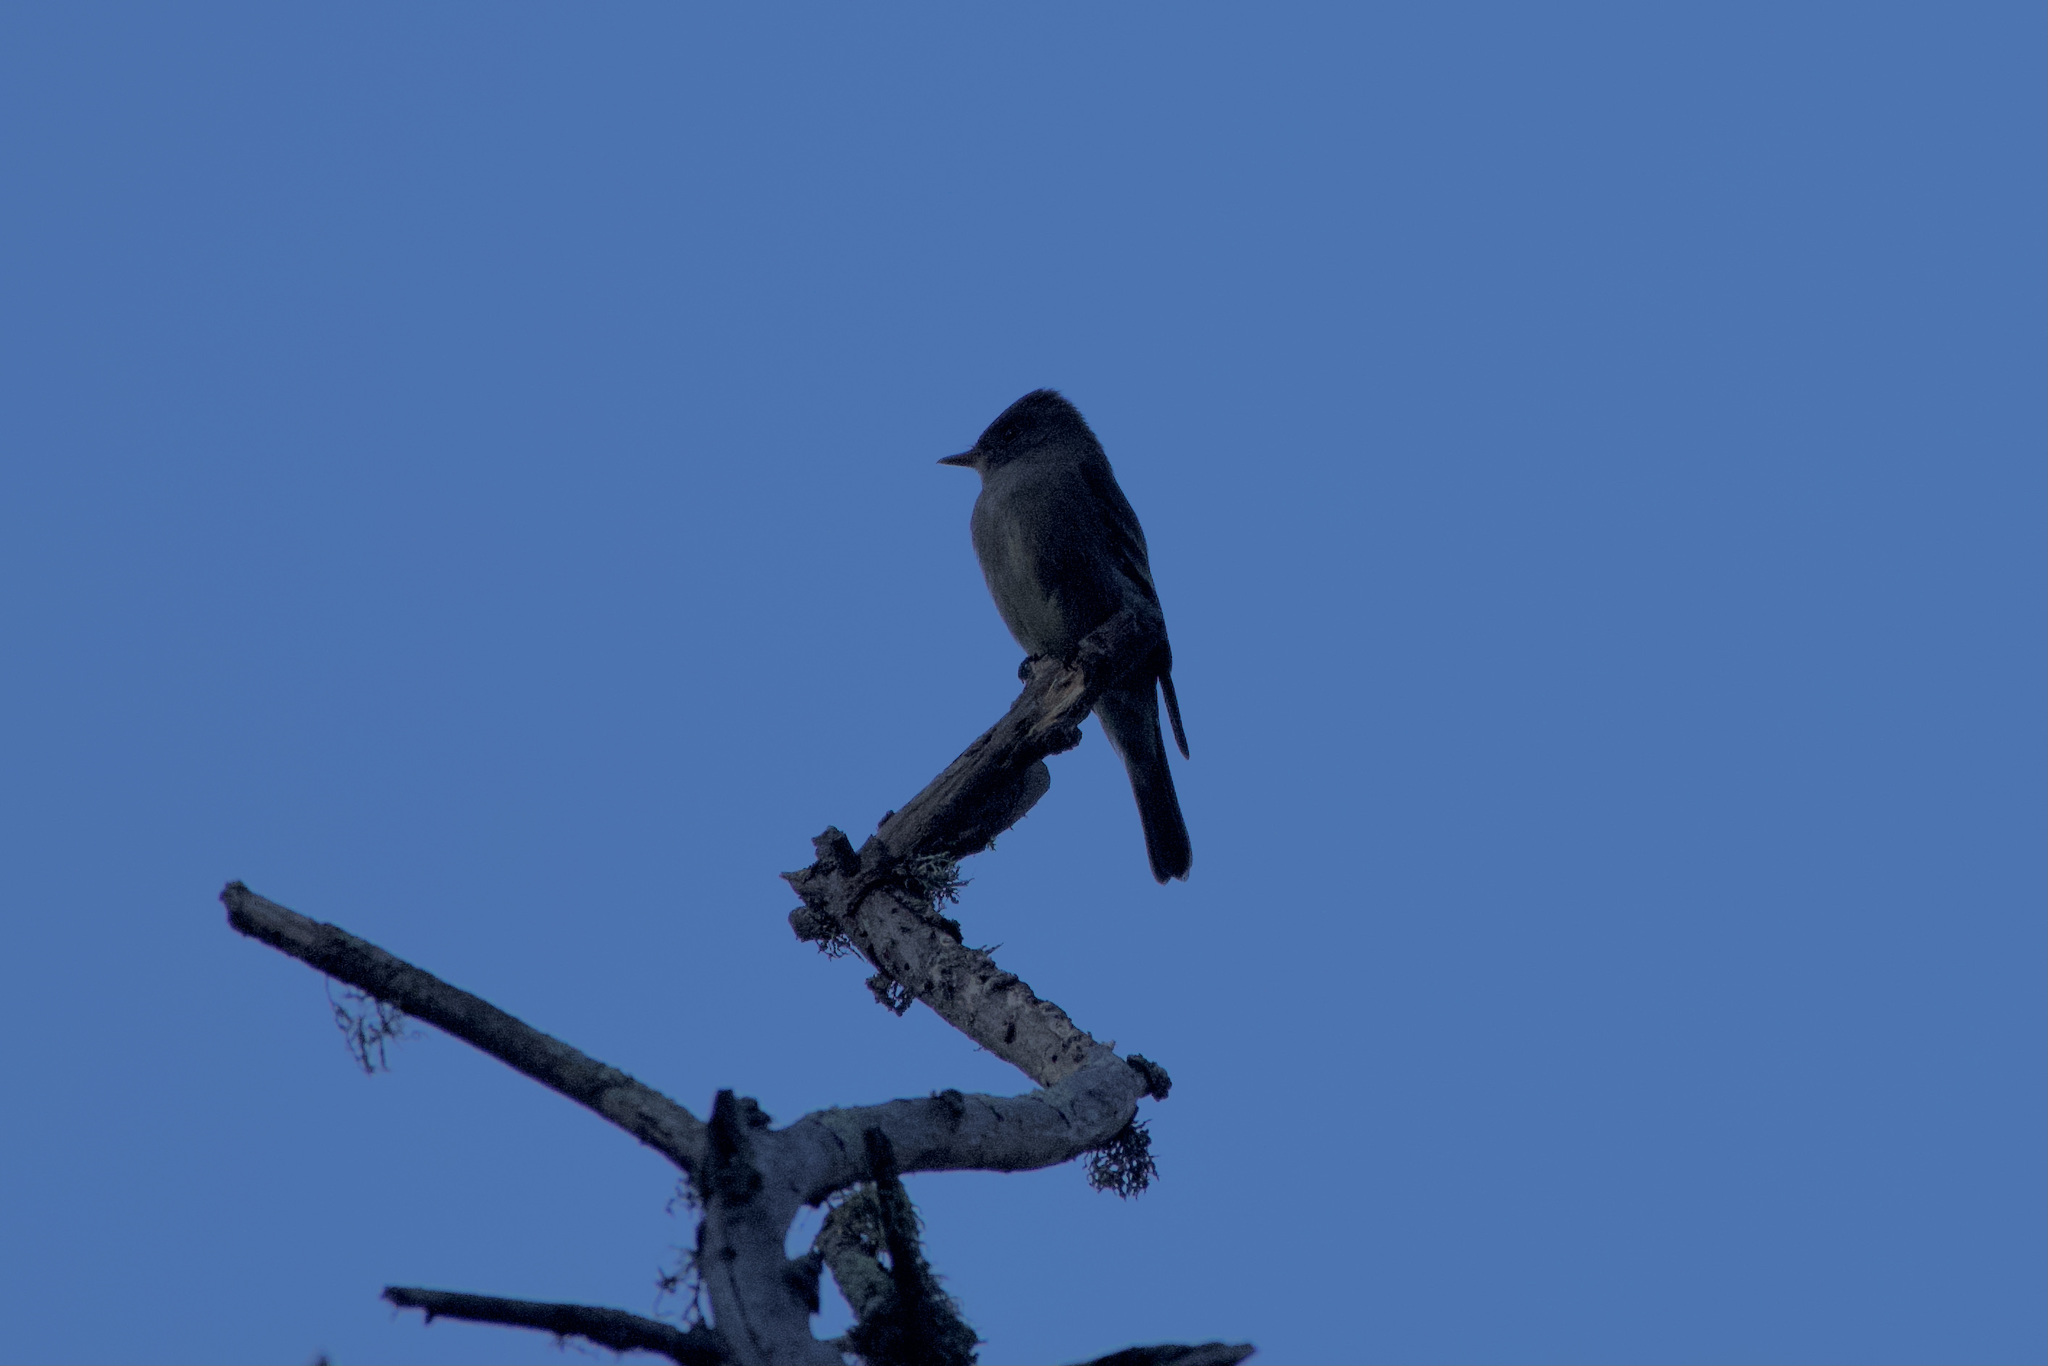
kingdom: Animalia
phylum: Chordata
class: Aves
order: Passeriformes
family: Tyrannidae
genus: Contopus
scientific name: Contopus sordidulus
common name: Western wood-pewee
